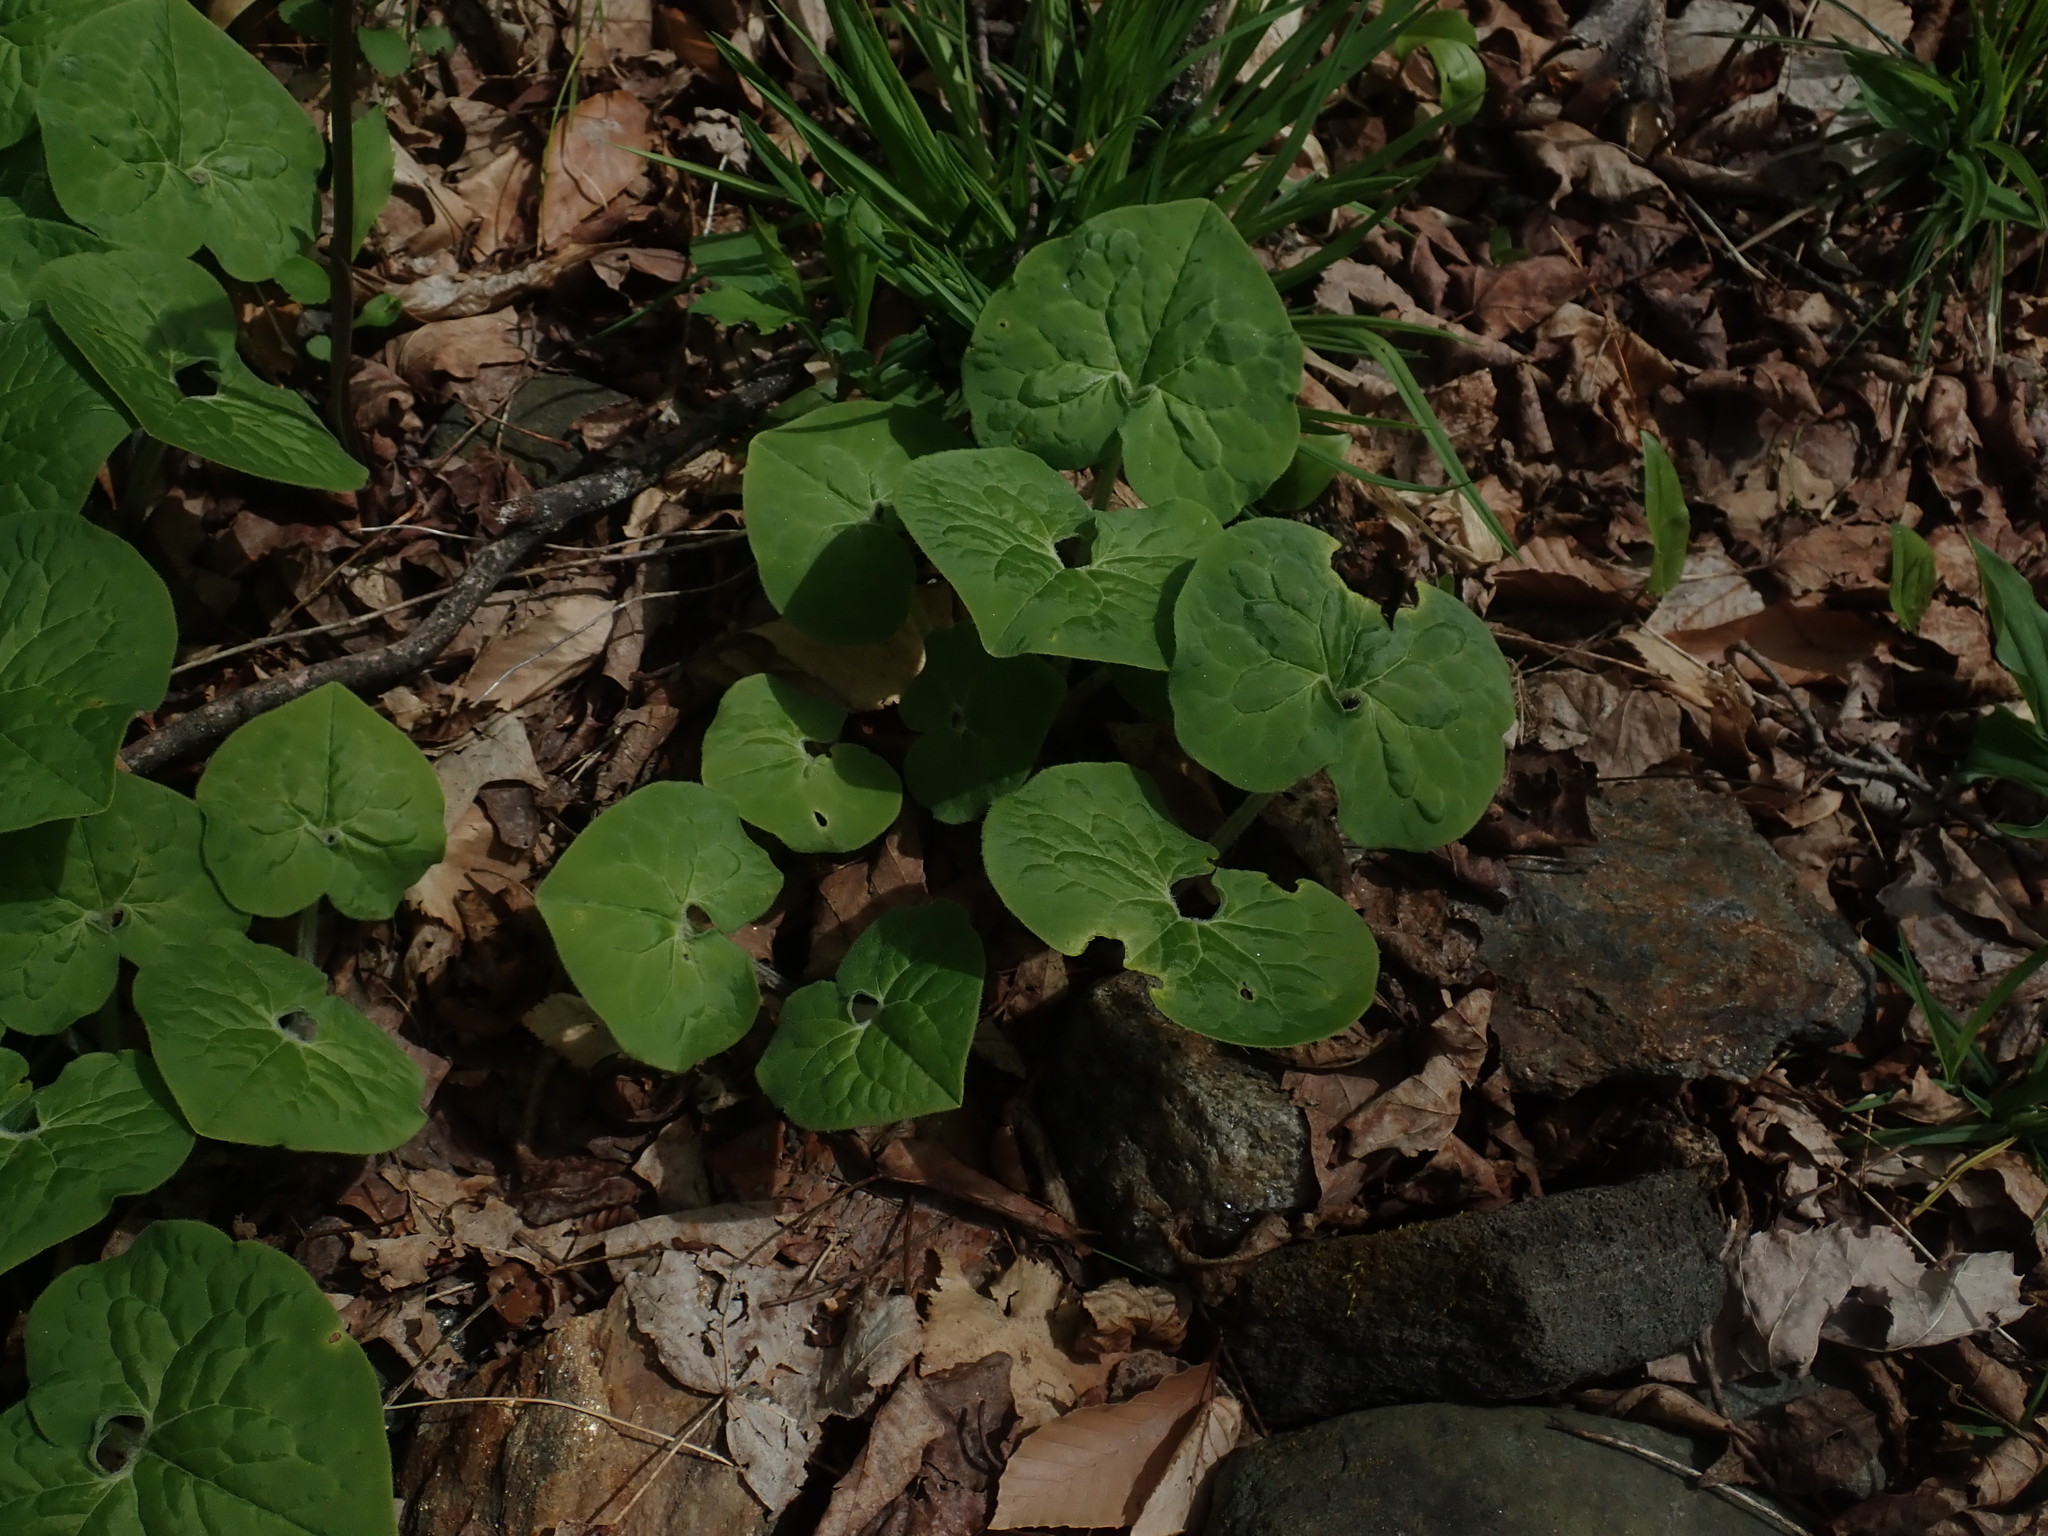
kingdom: Plantae
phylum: Tracheophyta
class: Magnoliopsida
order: Piperales
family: Aristolochiaceae
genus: Asarum
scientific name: Asarum canadense
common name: Wild ginger
